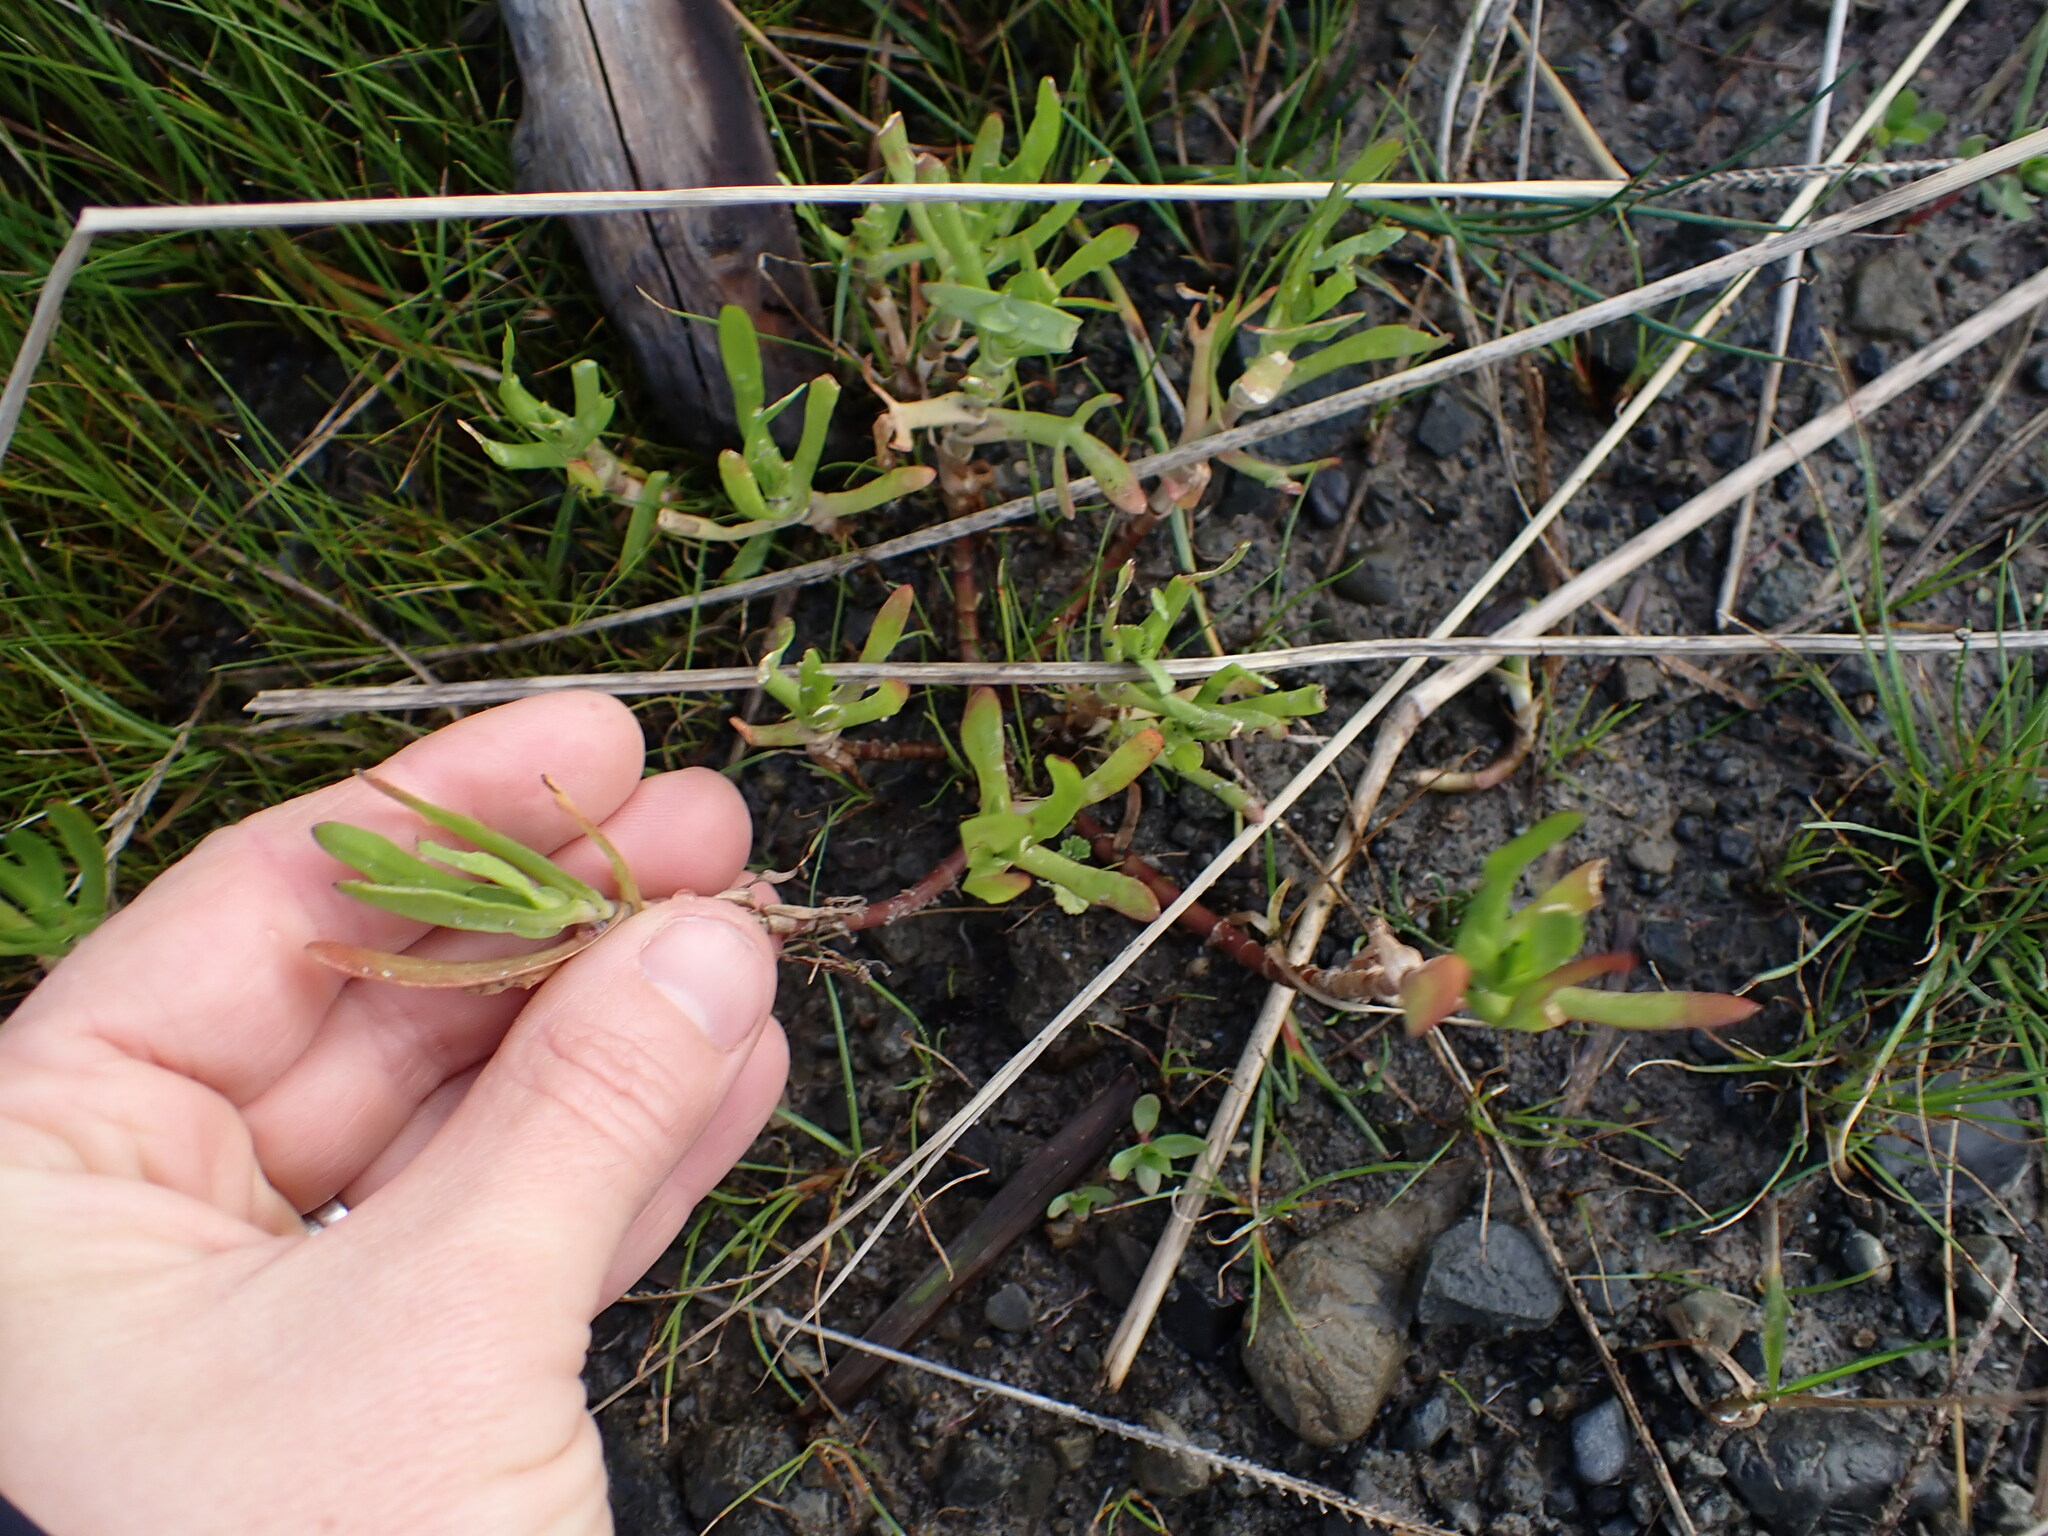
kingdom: Plantae
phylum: Tracheophyta
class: Magnoliopsida
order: Asterales
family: Asteraceae
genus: Cotula
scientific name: Cotula coronopifolia
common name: Buttonweed
